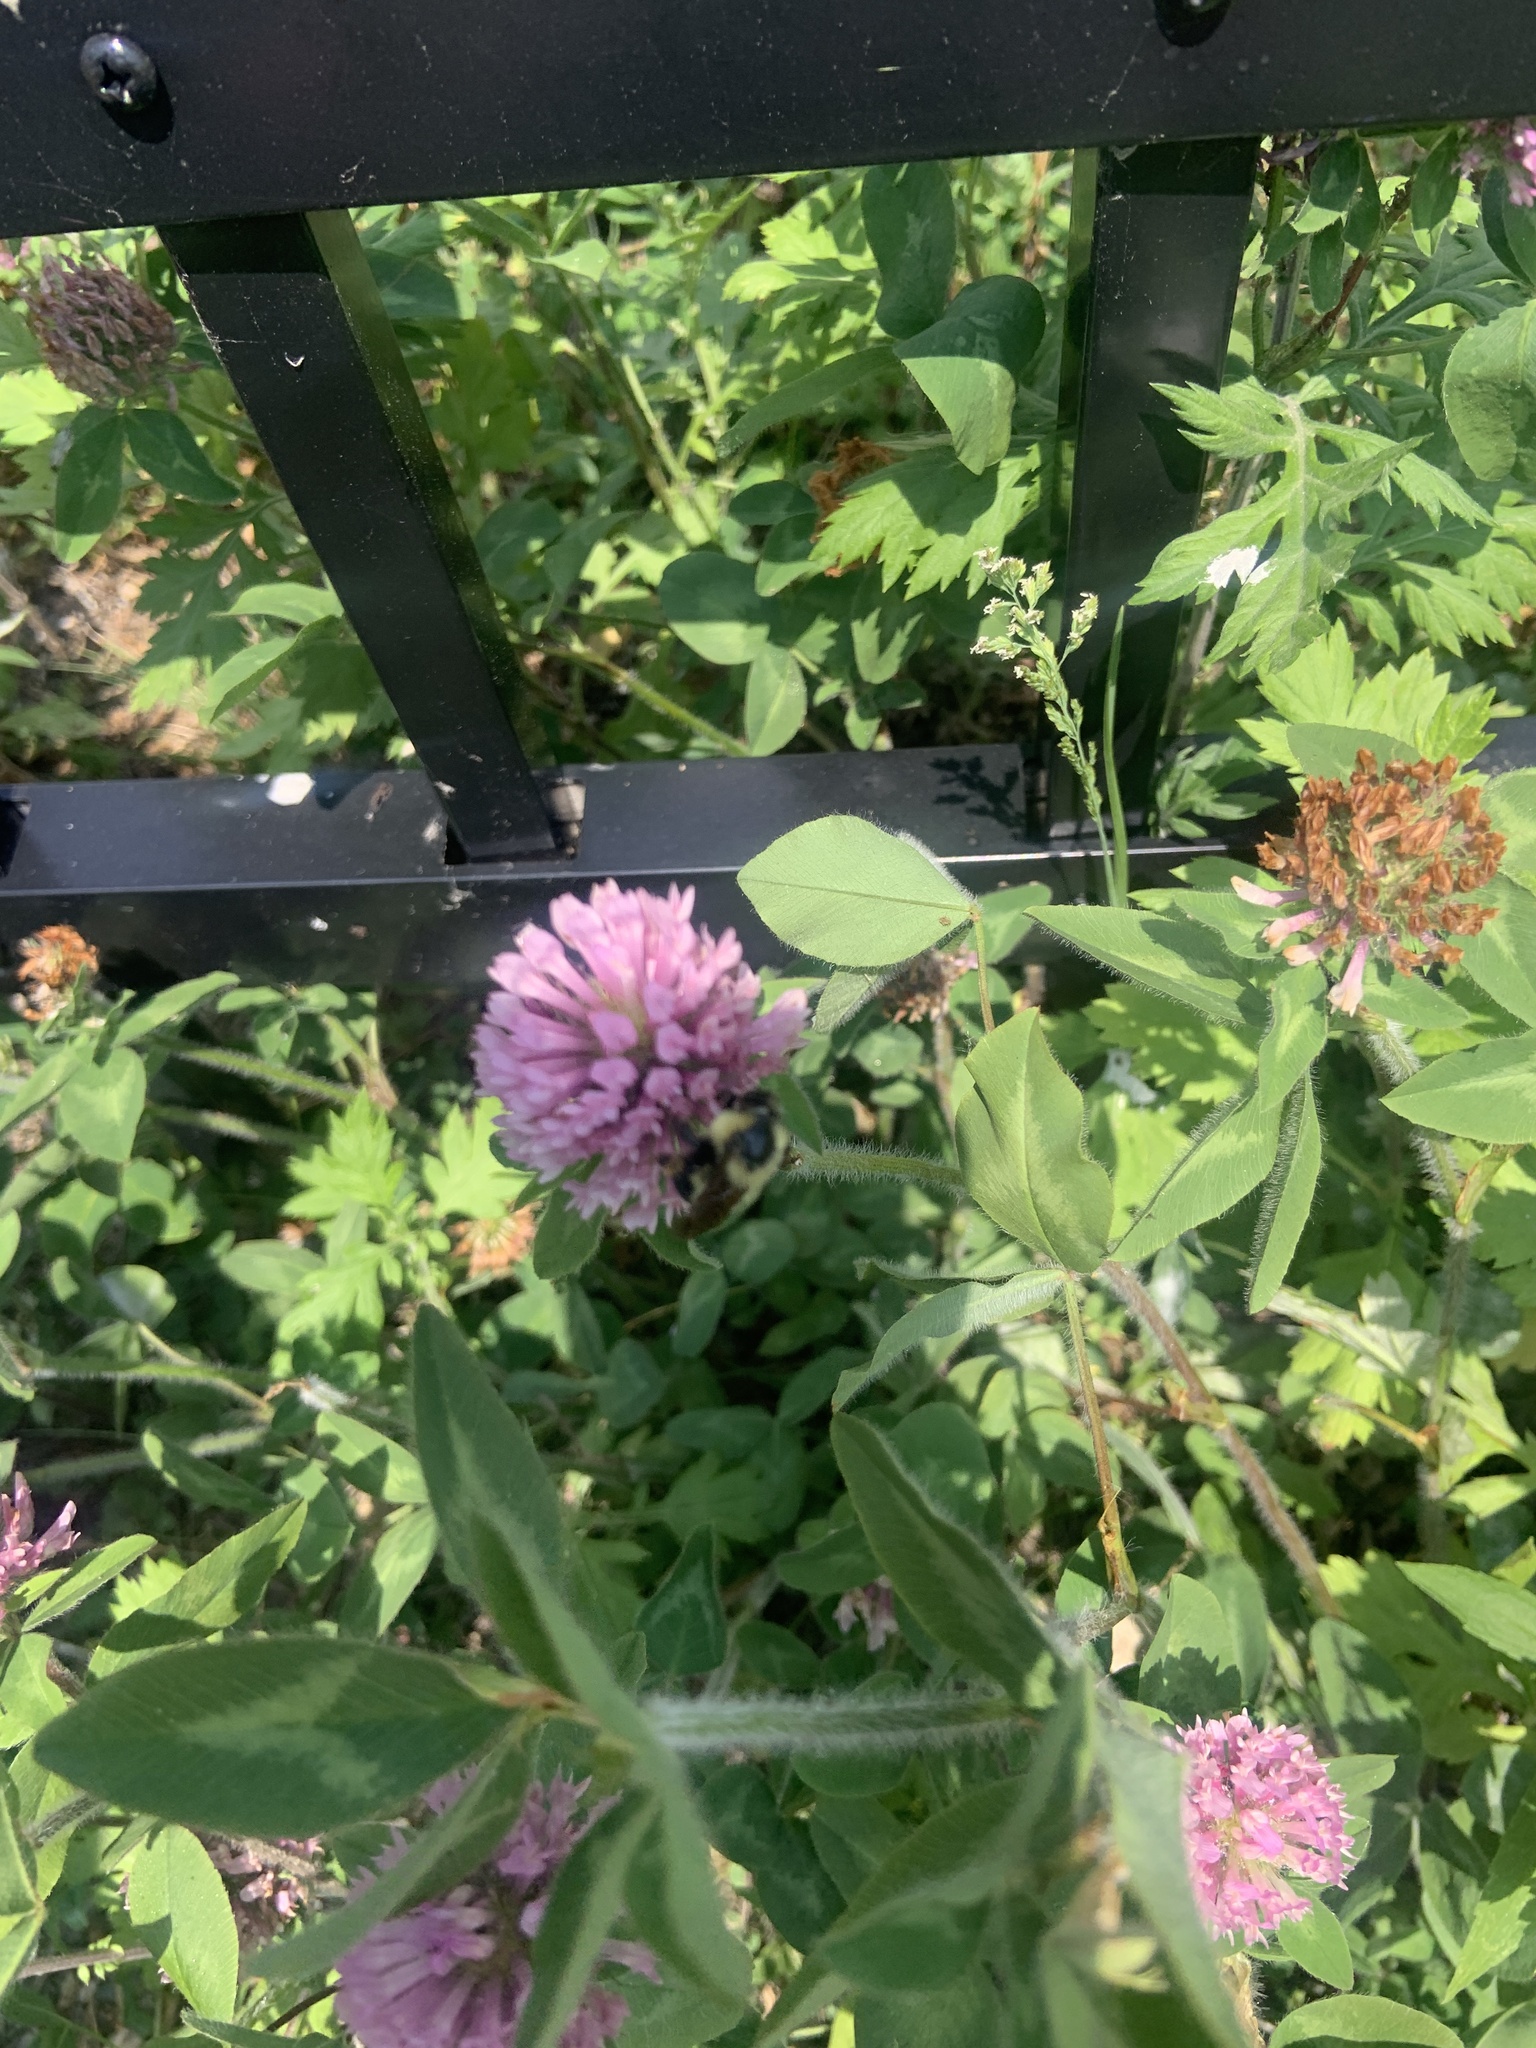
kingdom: Animalia
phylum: Arthropoda
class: Insecta
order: Hymenoptera
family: Apidae
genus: Bombus
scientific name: Bombus bimaculatus
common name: Two-spotted bumble bee
